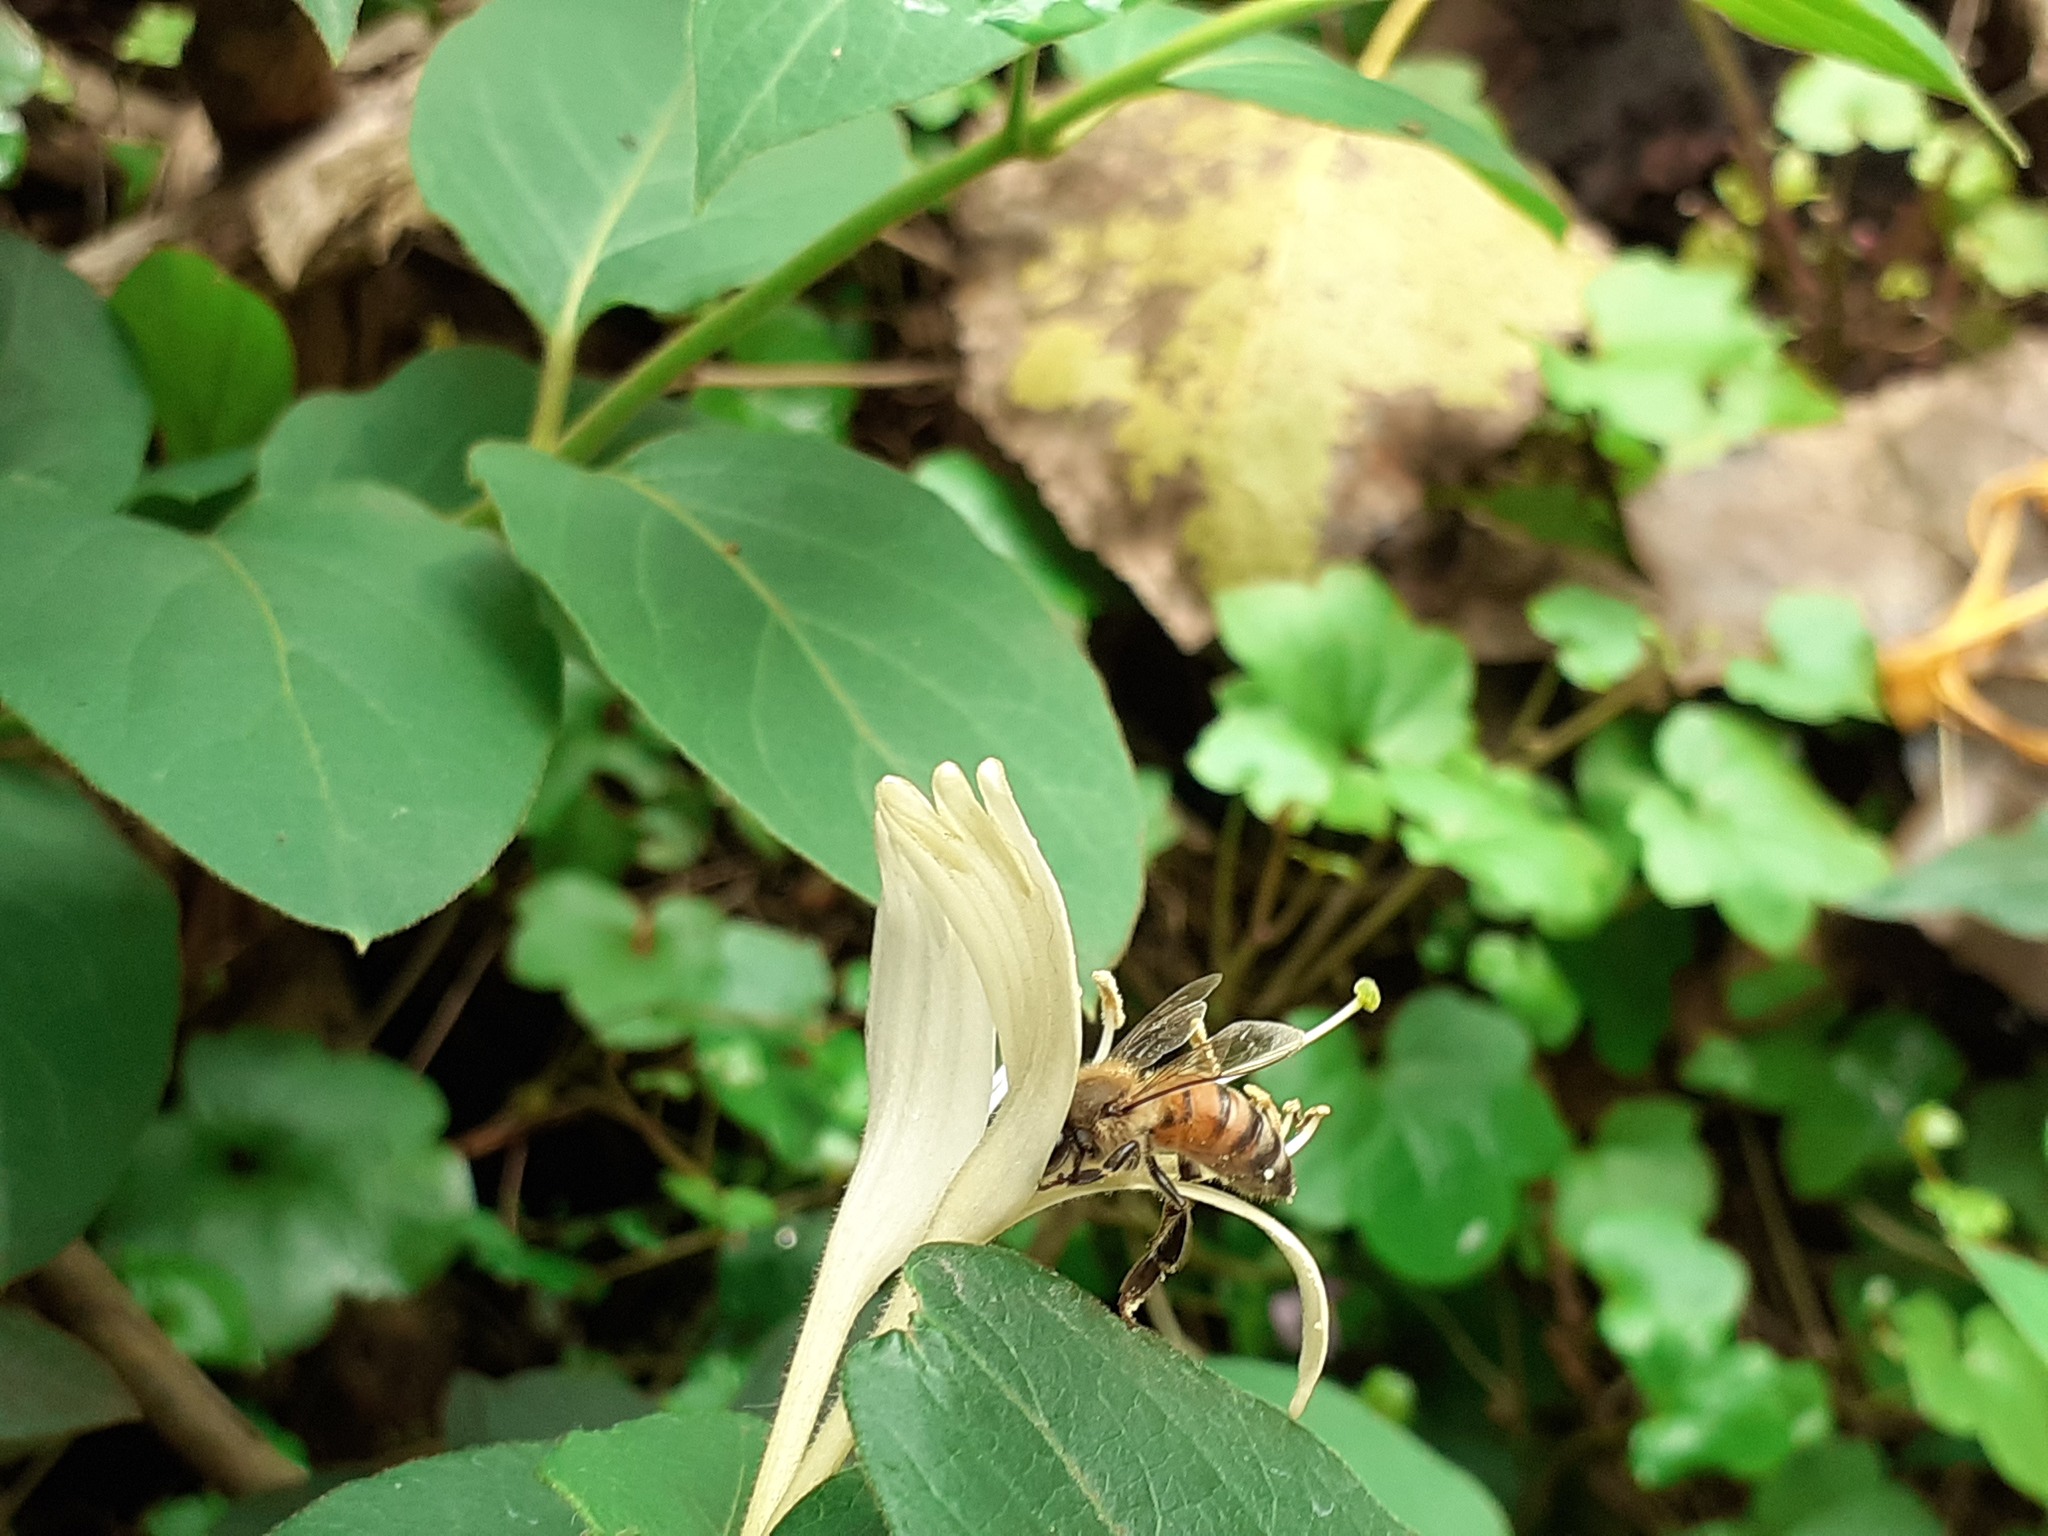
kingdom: Animalia
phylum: Arthropoda
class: Insecta
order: Hymenoptera
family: Apidae
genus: Apis
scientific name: Apis mellifera
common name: Honey bee
